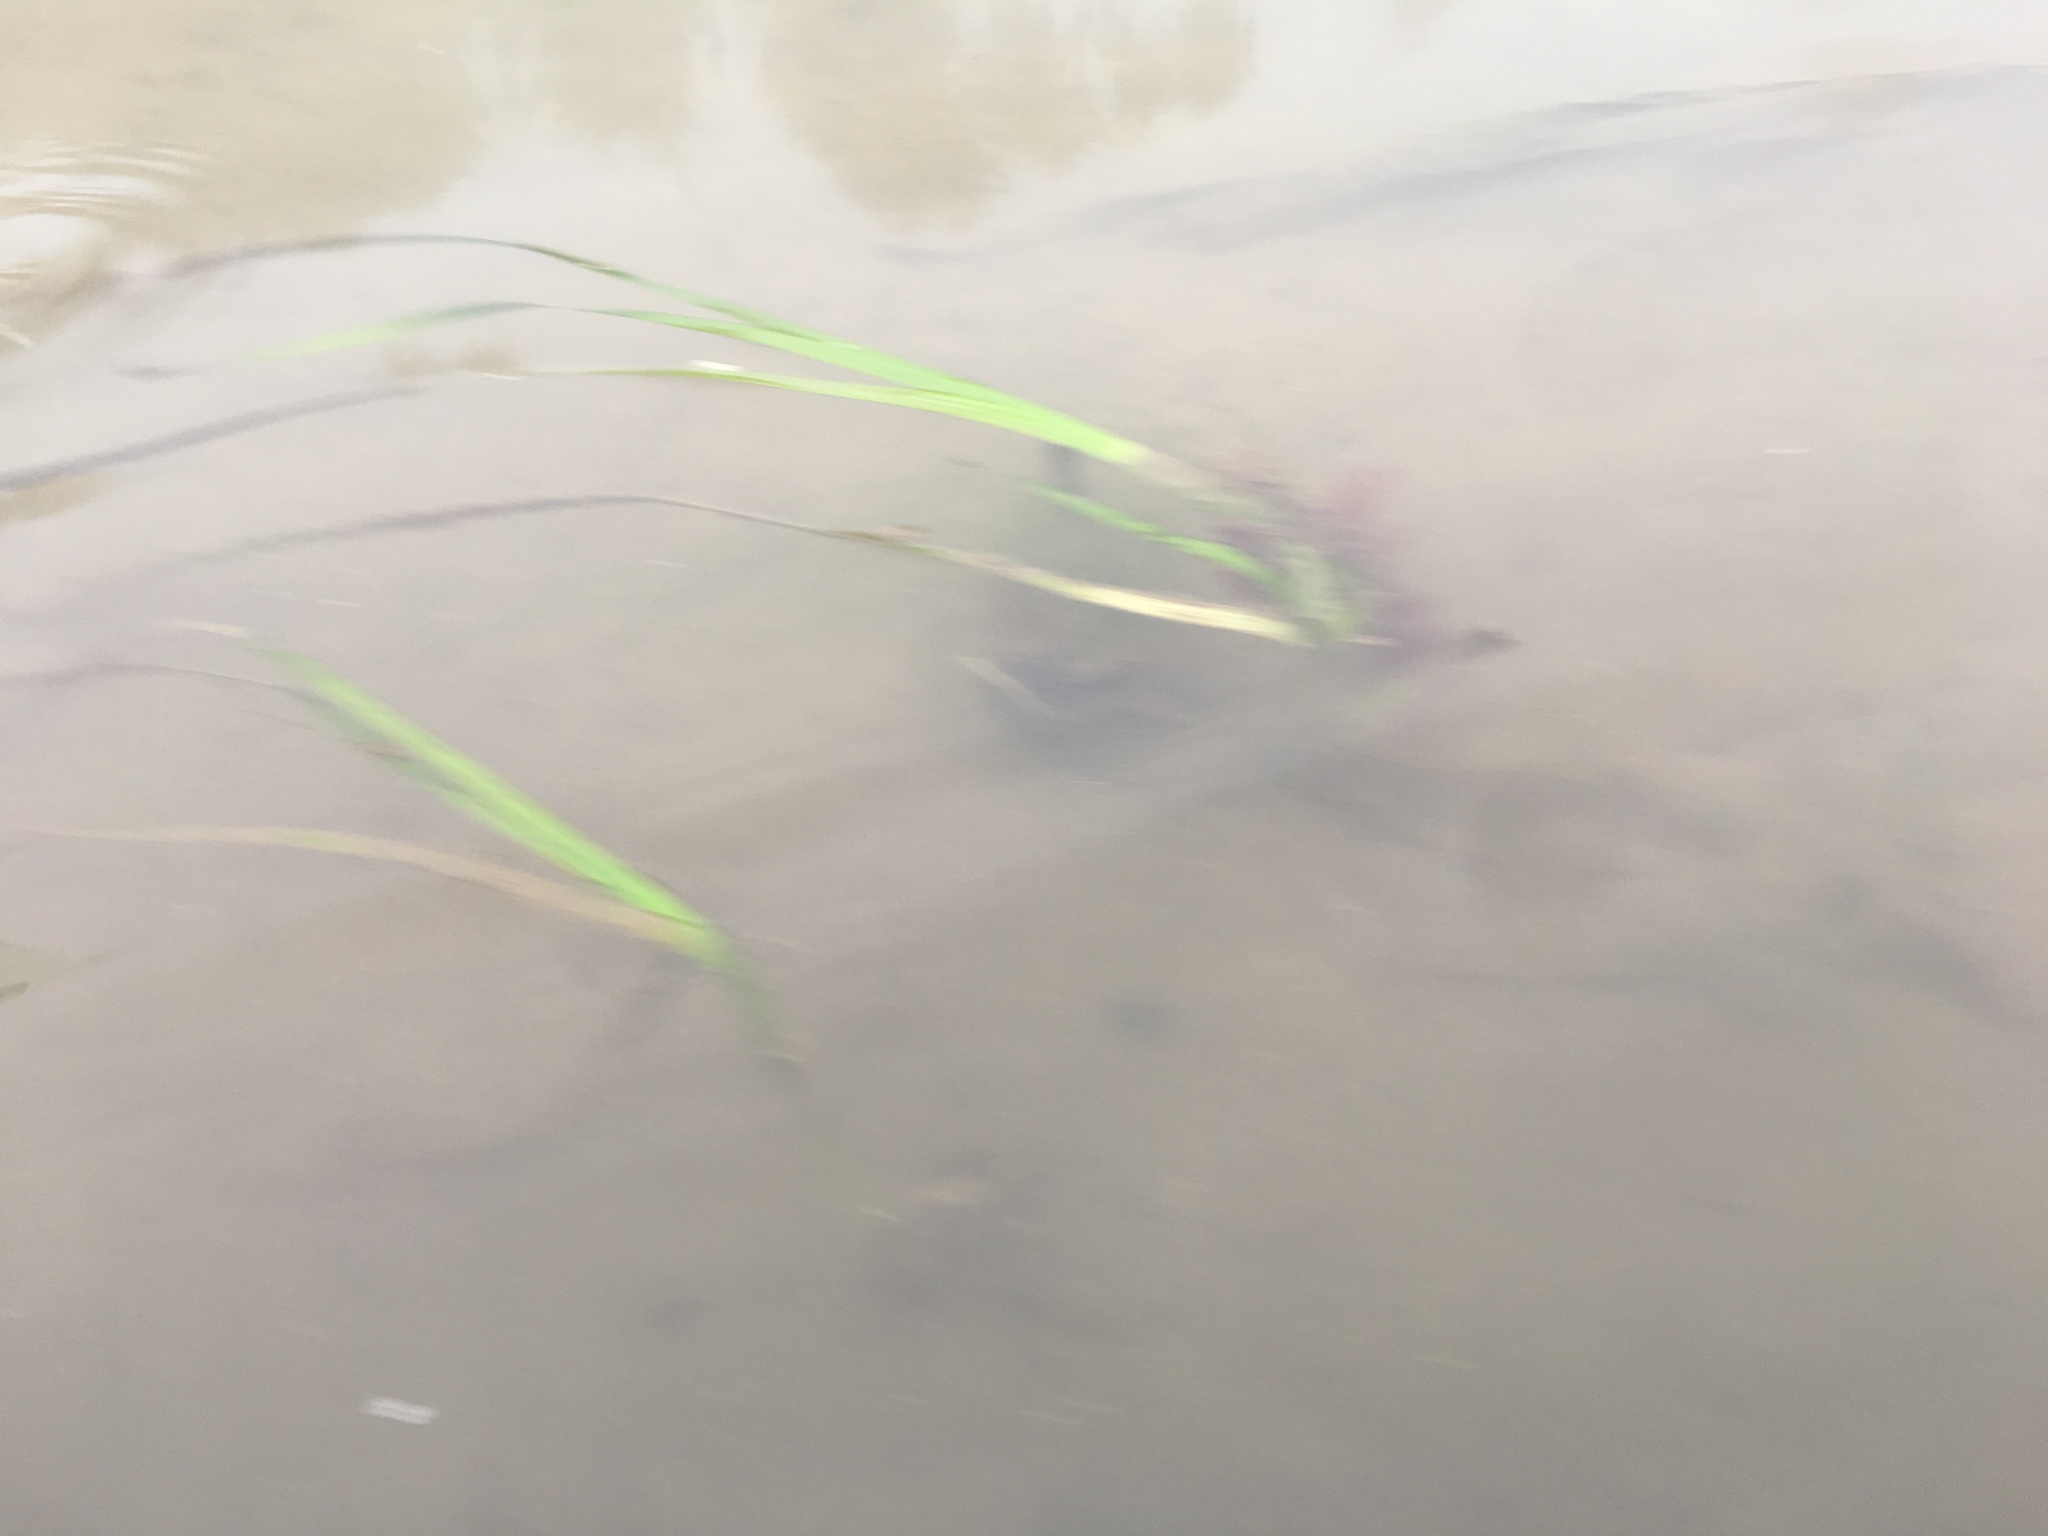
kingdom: Plantae
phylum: Tracheophyta
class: Liliopsida
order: Alismatales
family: Zosteraceae
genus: Zostera
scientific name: Zostera marina
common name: Eelgrass
